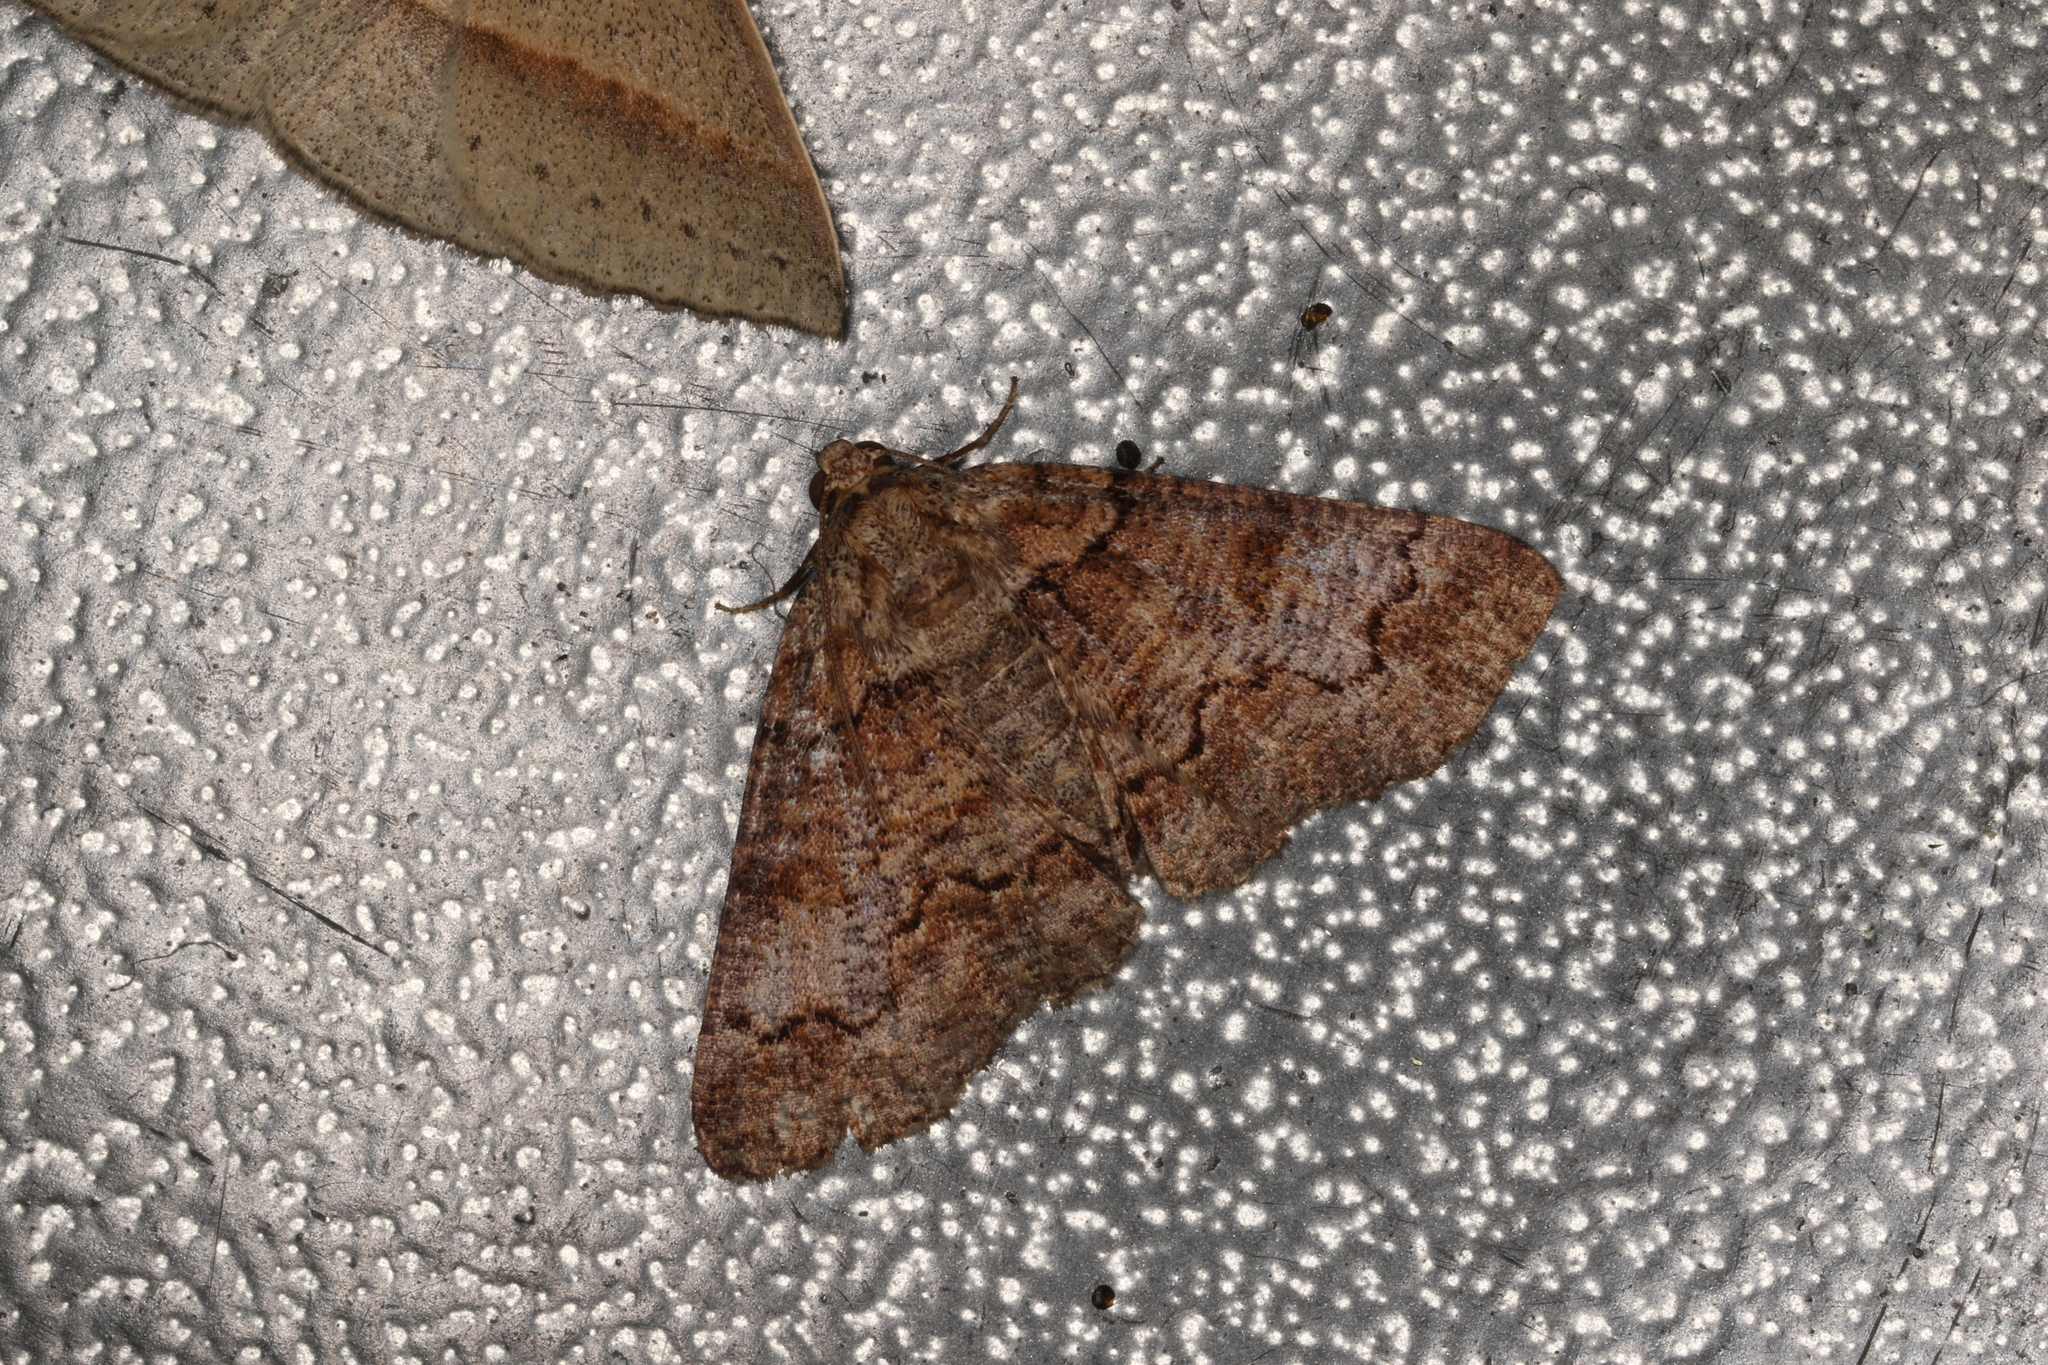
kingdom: Animalia
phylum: Arthropoda
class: Insecta
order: Lepidoptera
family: Geometridae
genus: Cryphaea
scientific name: Cryphaea xylina
